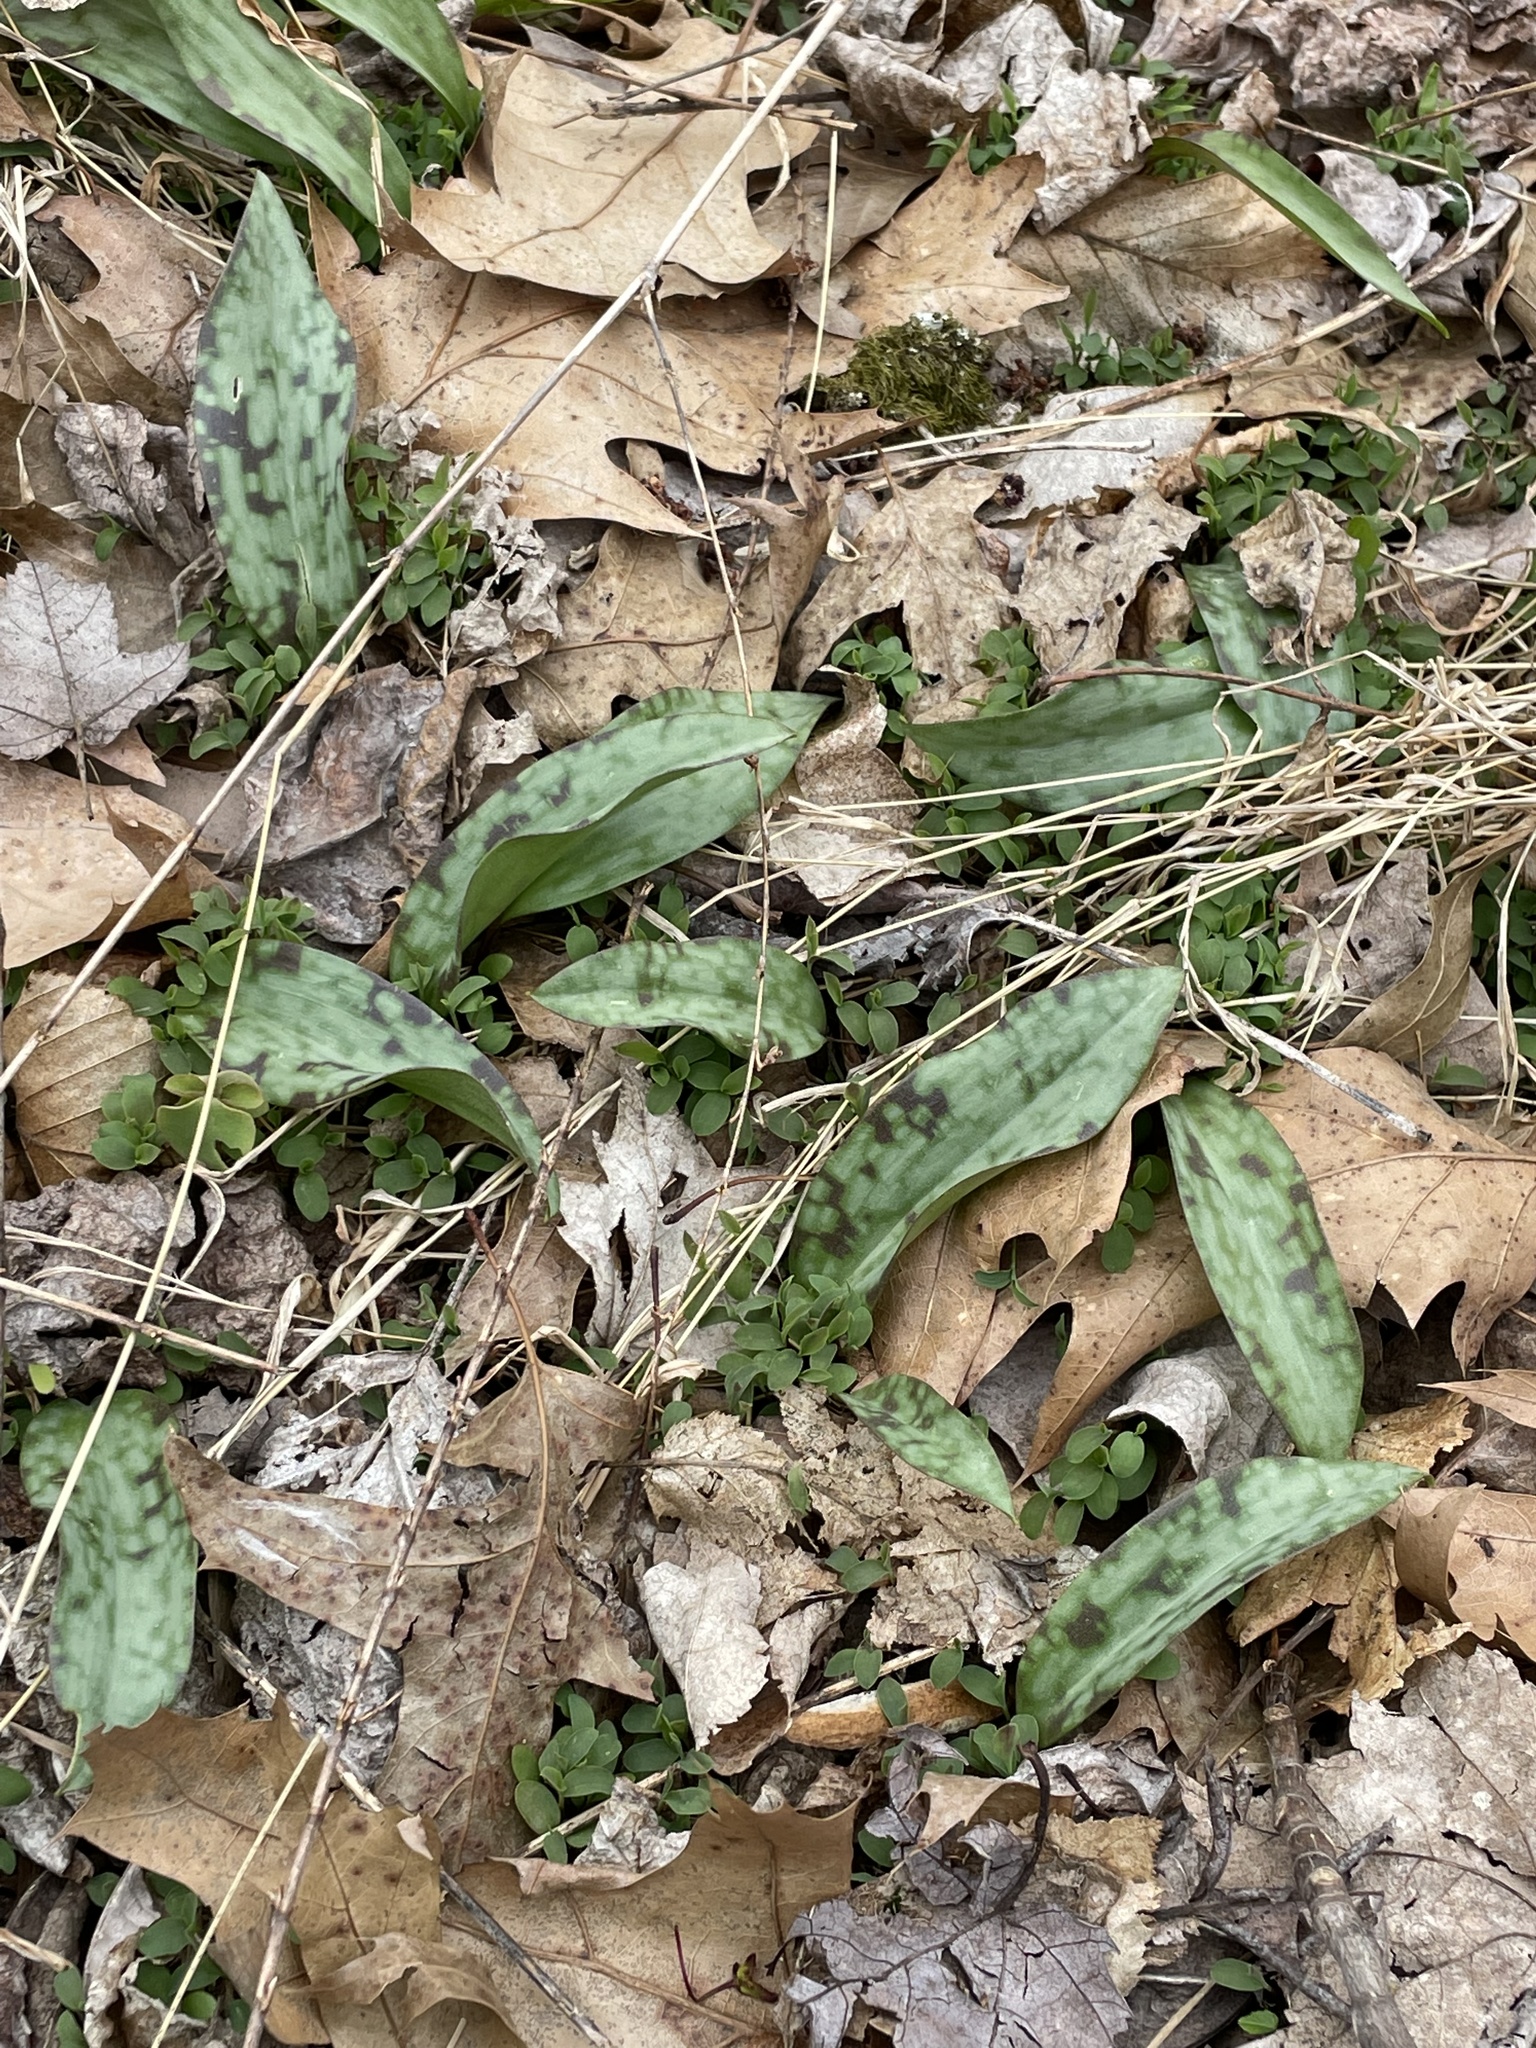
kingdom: Plantae
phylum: Tracheophyta
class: Liliopsida
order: Liliales
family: Liliaceae
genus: Erythronium
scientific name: Erythronium americanum
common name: Yellow adder's-tongue
